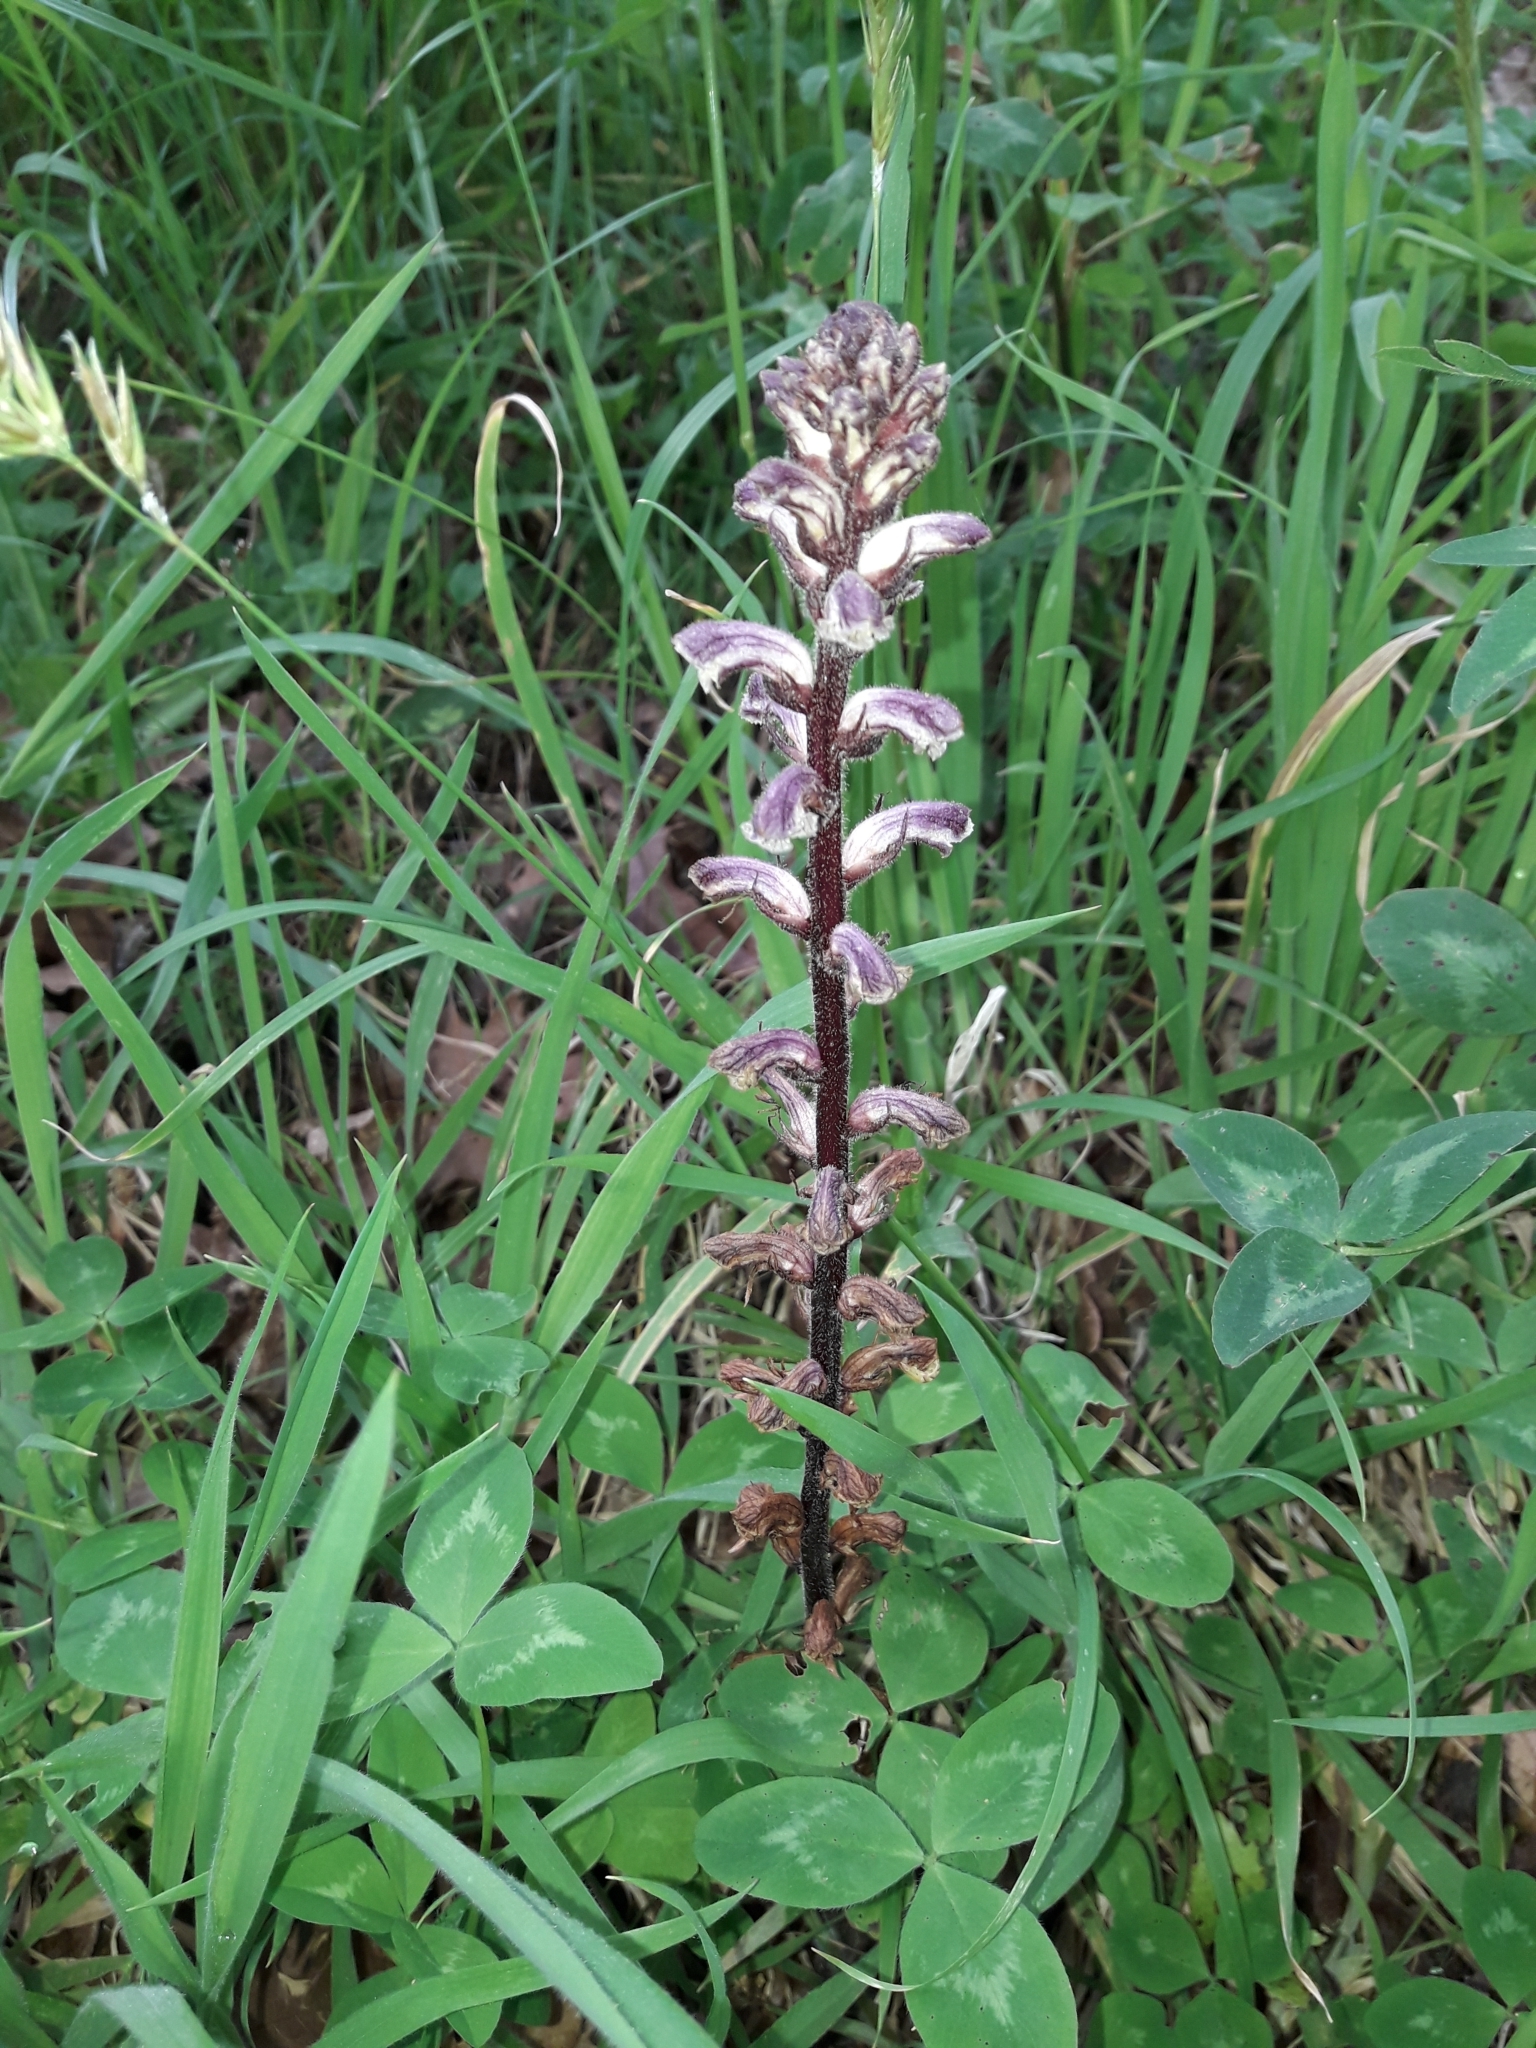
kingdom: Plantae
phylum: Tracheophyta
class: Magnoliopsida
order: Lamiales
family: Orobanchaceae
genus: Orobanche
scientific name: Orobanche minor
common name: Common broomrape
